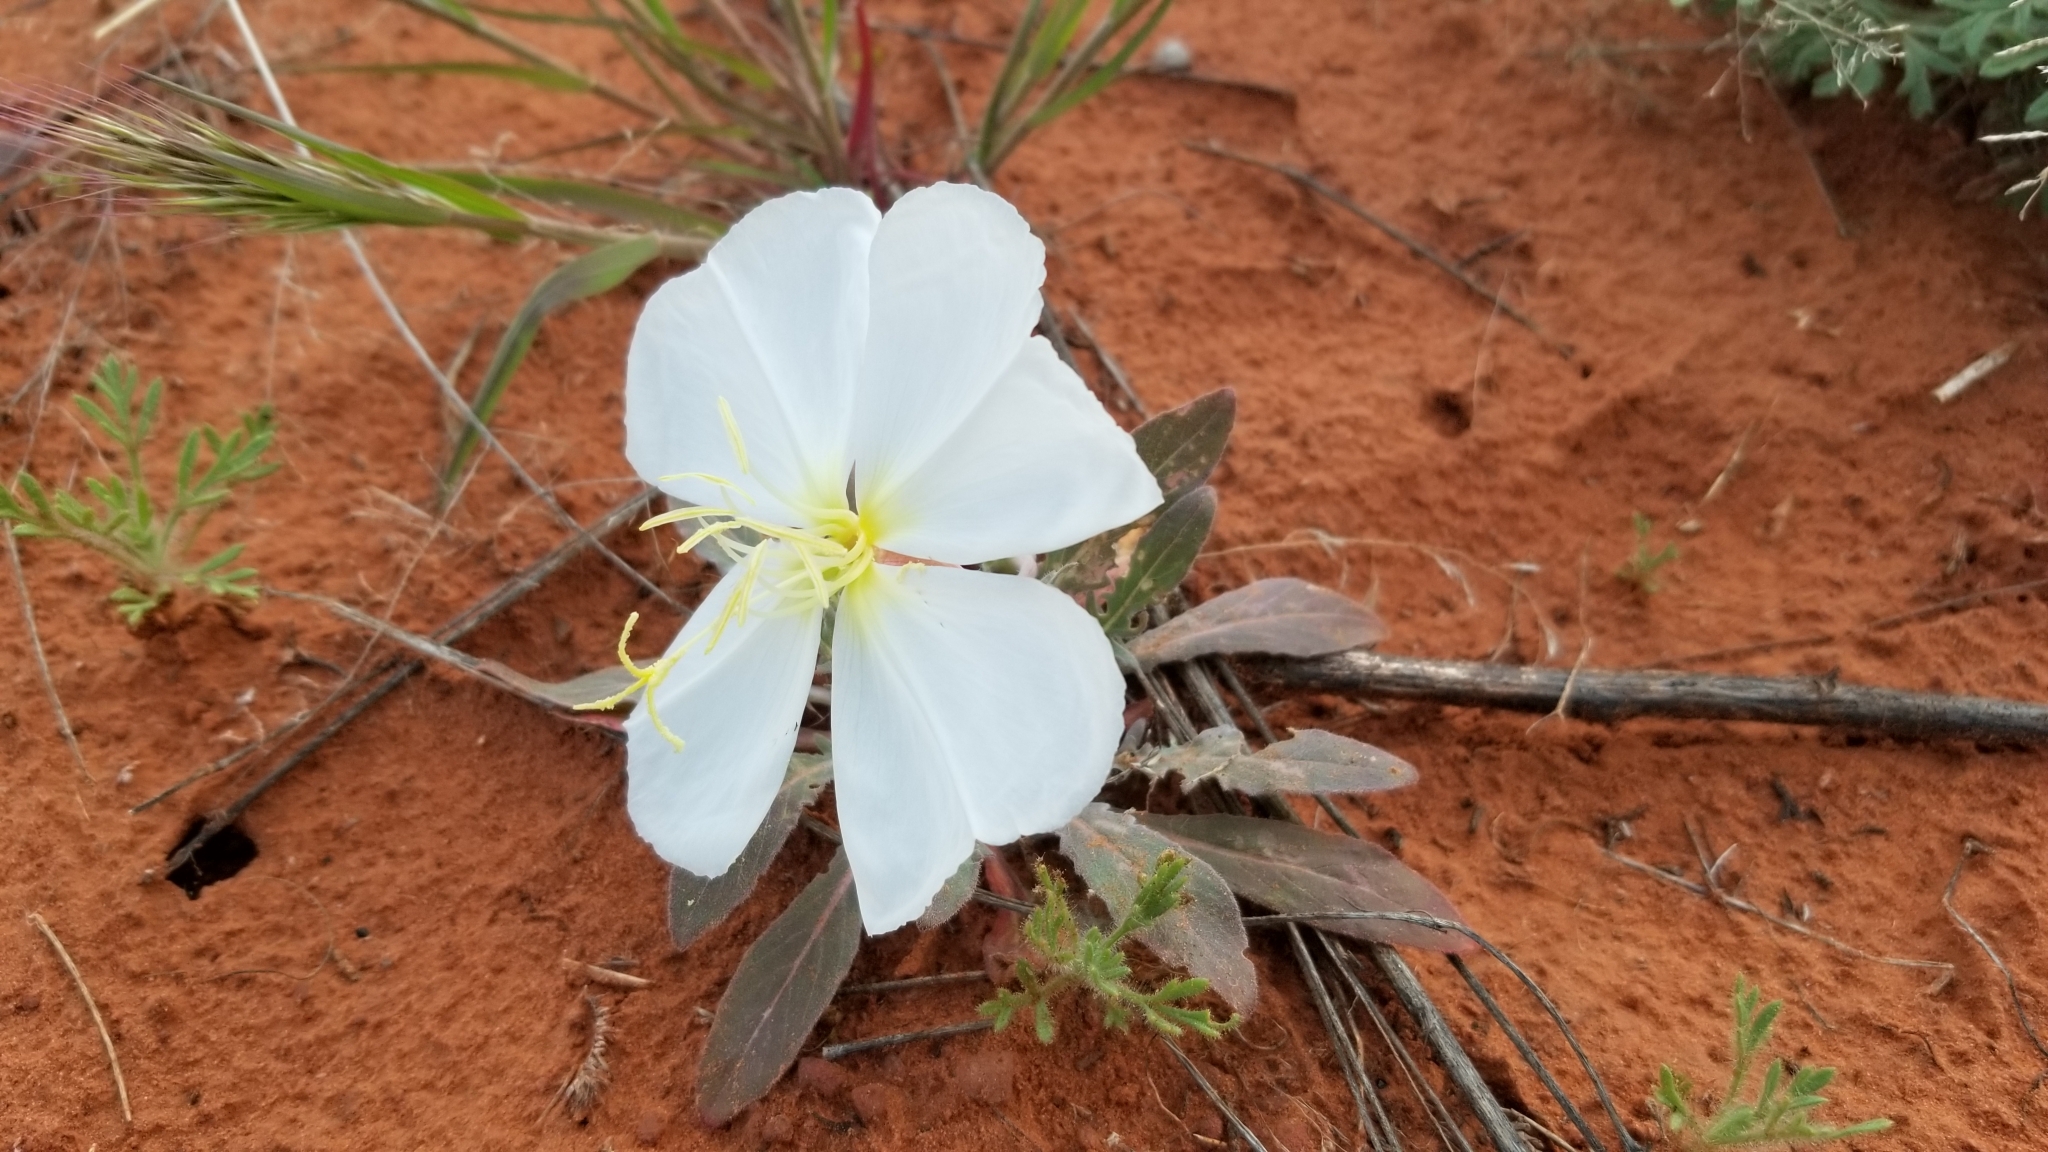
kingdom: Plantae
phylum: Tracheophyta
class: Magnoliopsida
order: Myrtales
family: Onagraceae
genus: Oenothera
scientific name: Oenothera albicaulis
